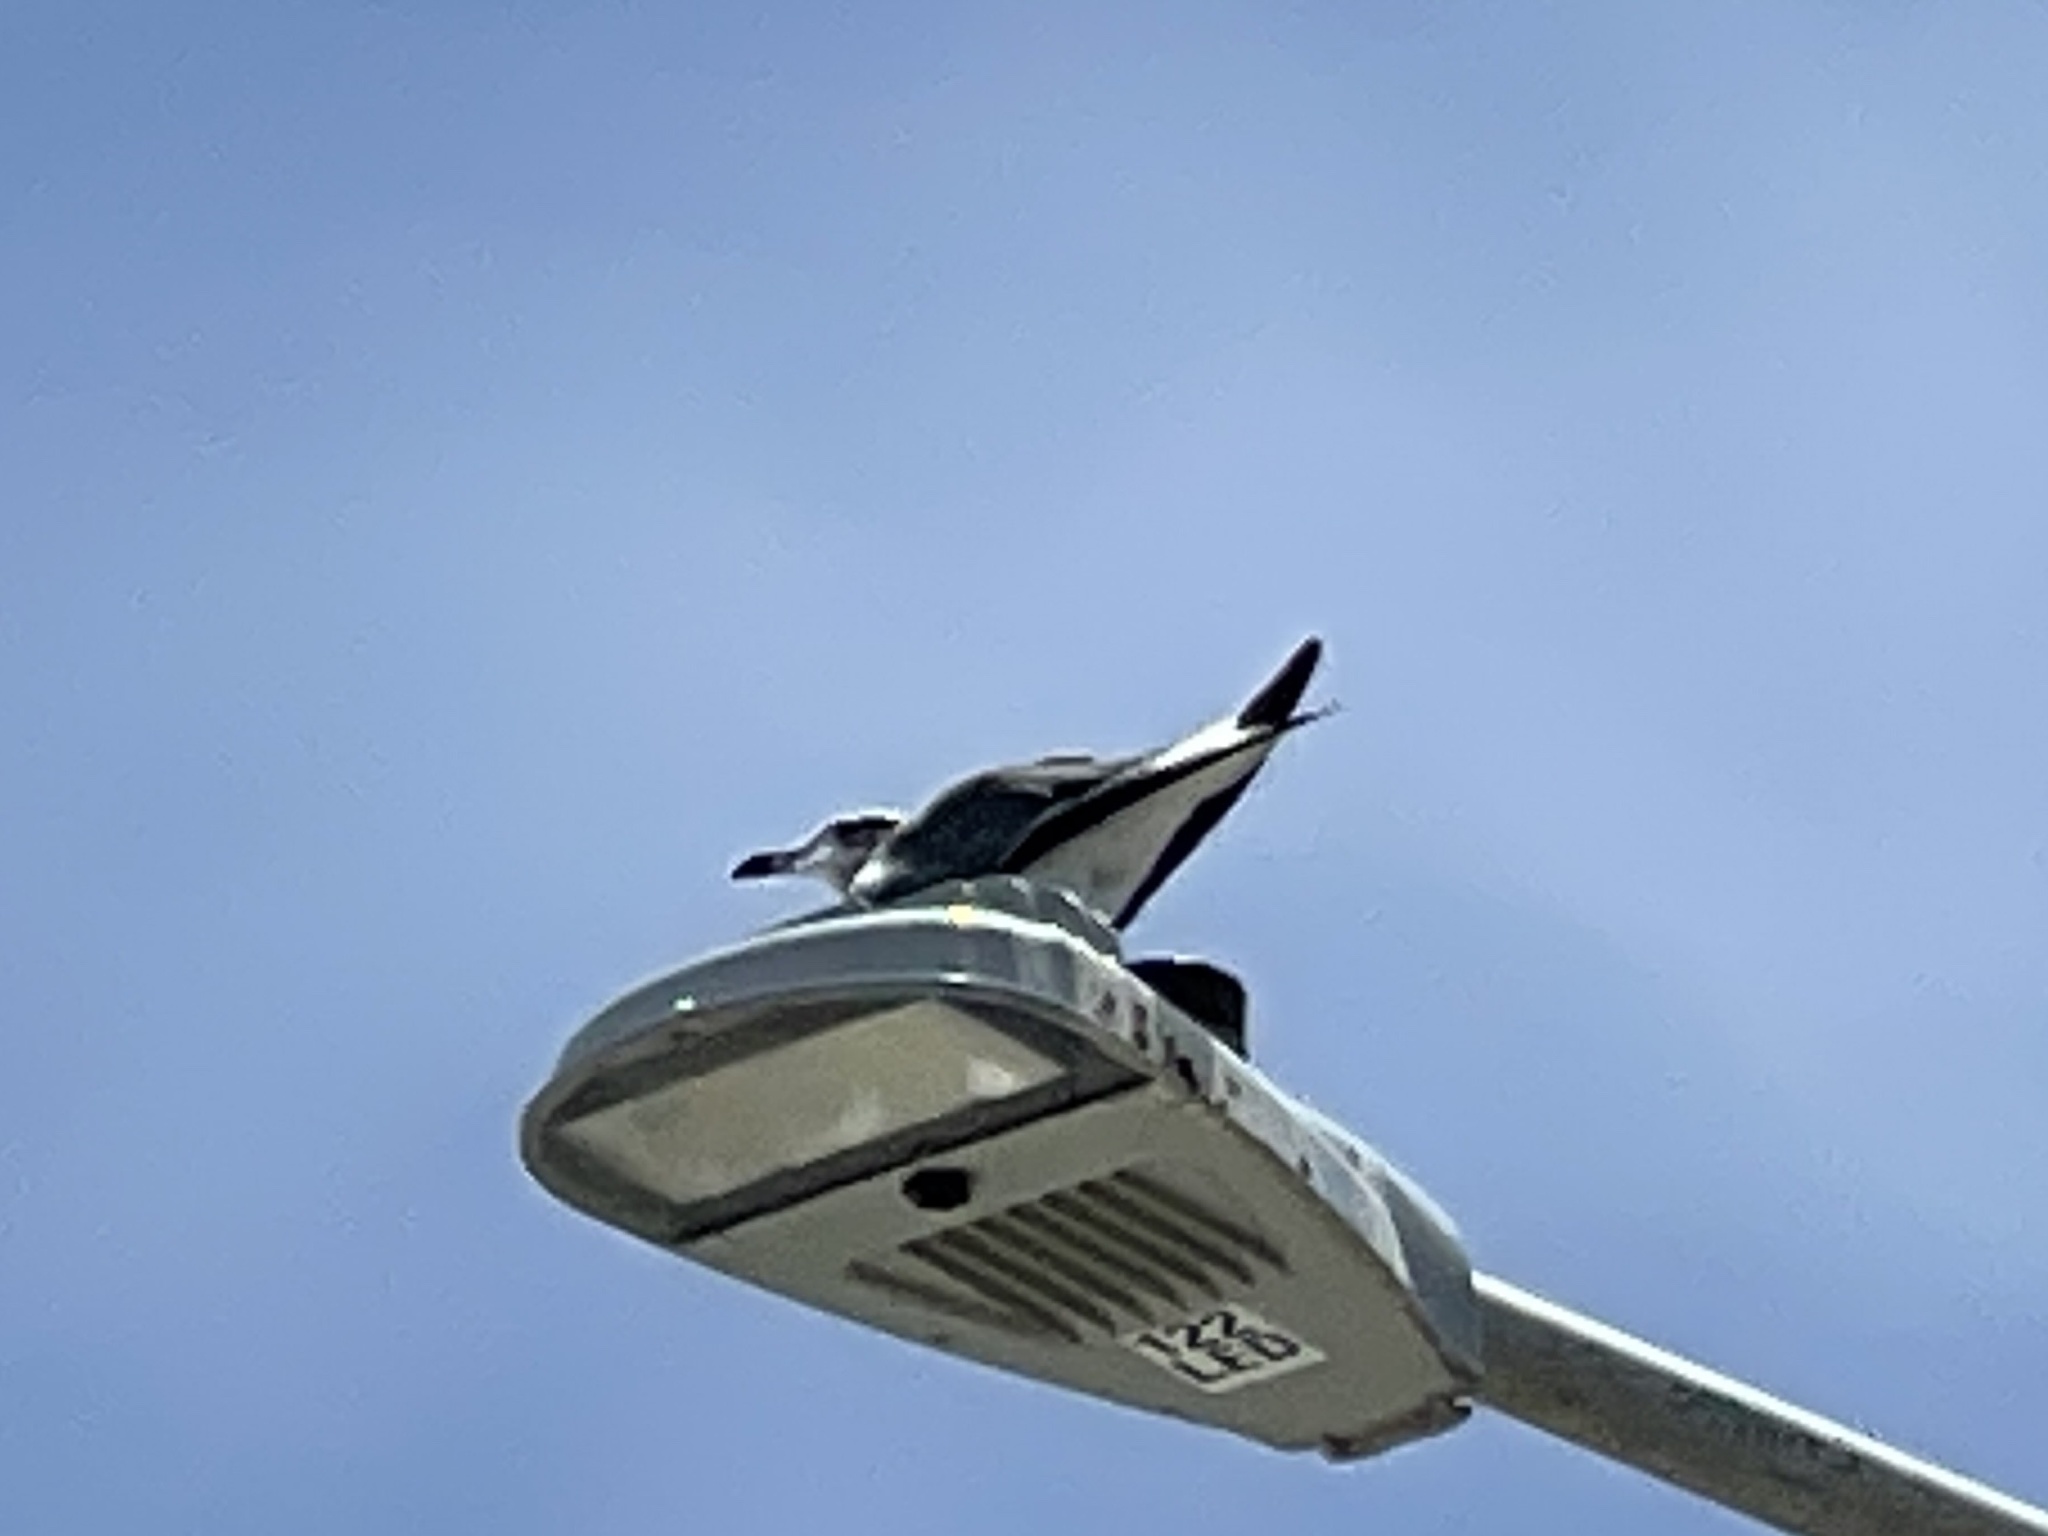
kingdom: Animalia
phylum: Chordata
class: Aves
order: Charadriiformes
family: Laridae
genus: Leucophaeus
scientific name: Leucophaeus atricilla
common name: Laughing gull
